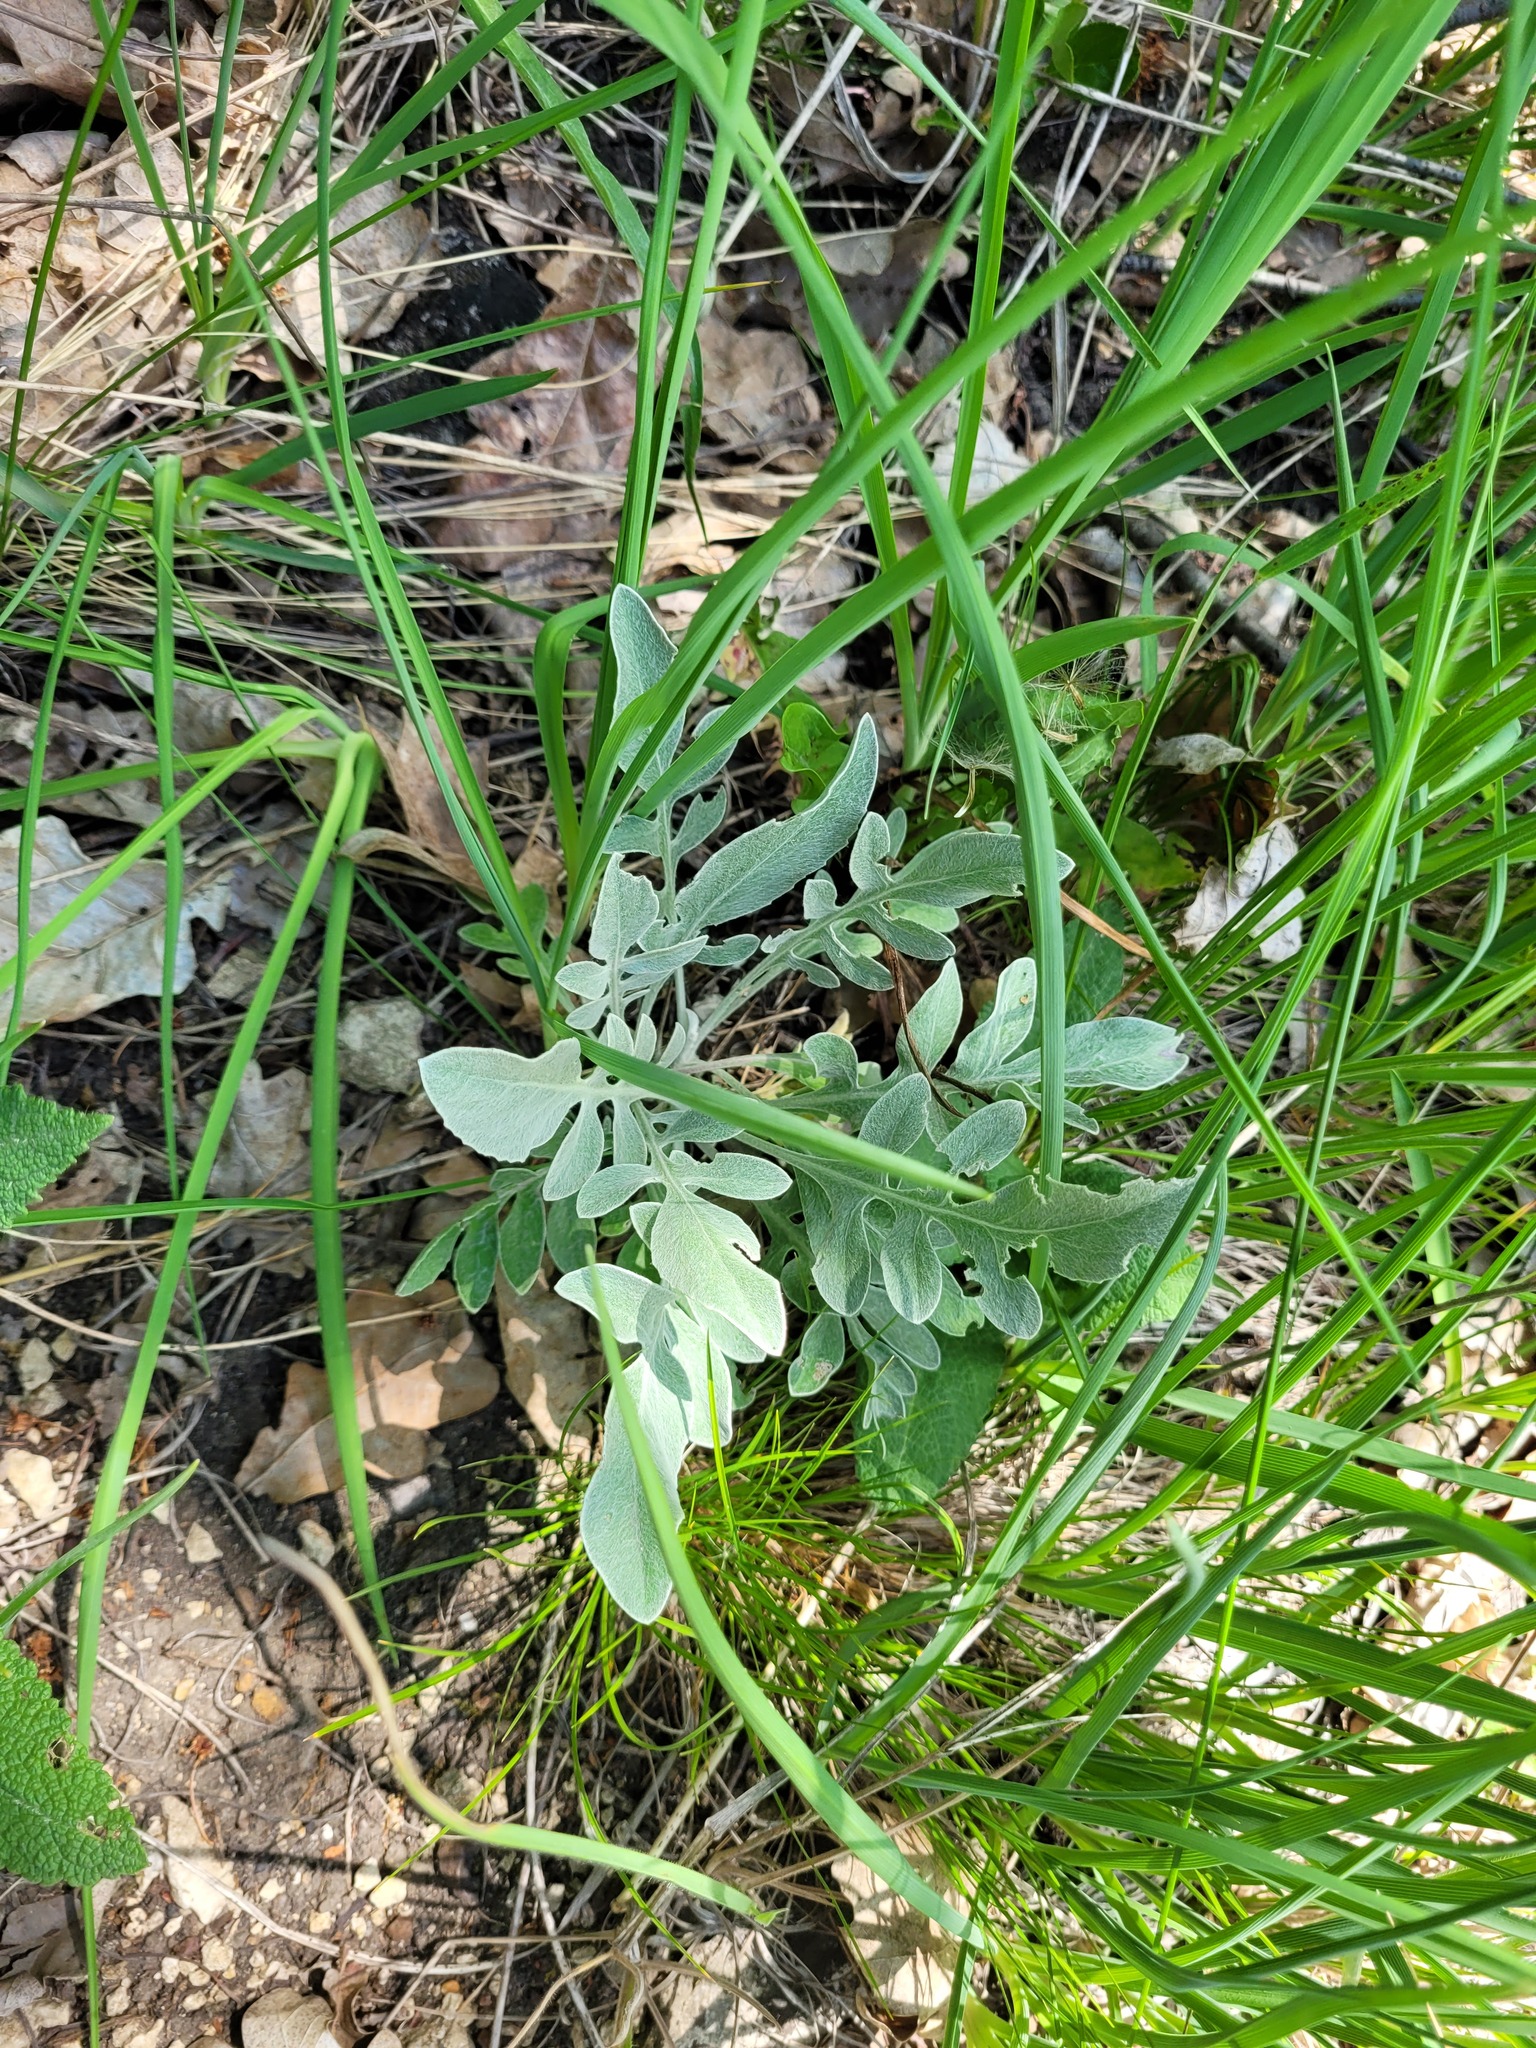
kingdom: Plantae
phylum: Tracheophyta
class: Magnoliopsida
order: Asterales
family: Asteraceae
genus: Psephellus
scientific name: Psephellus sumensis
